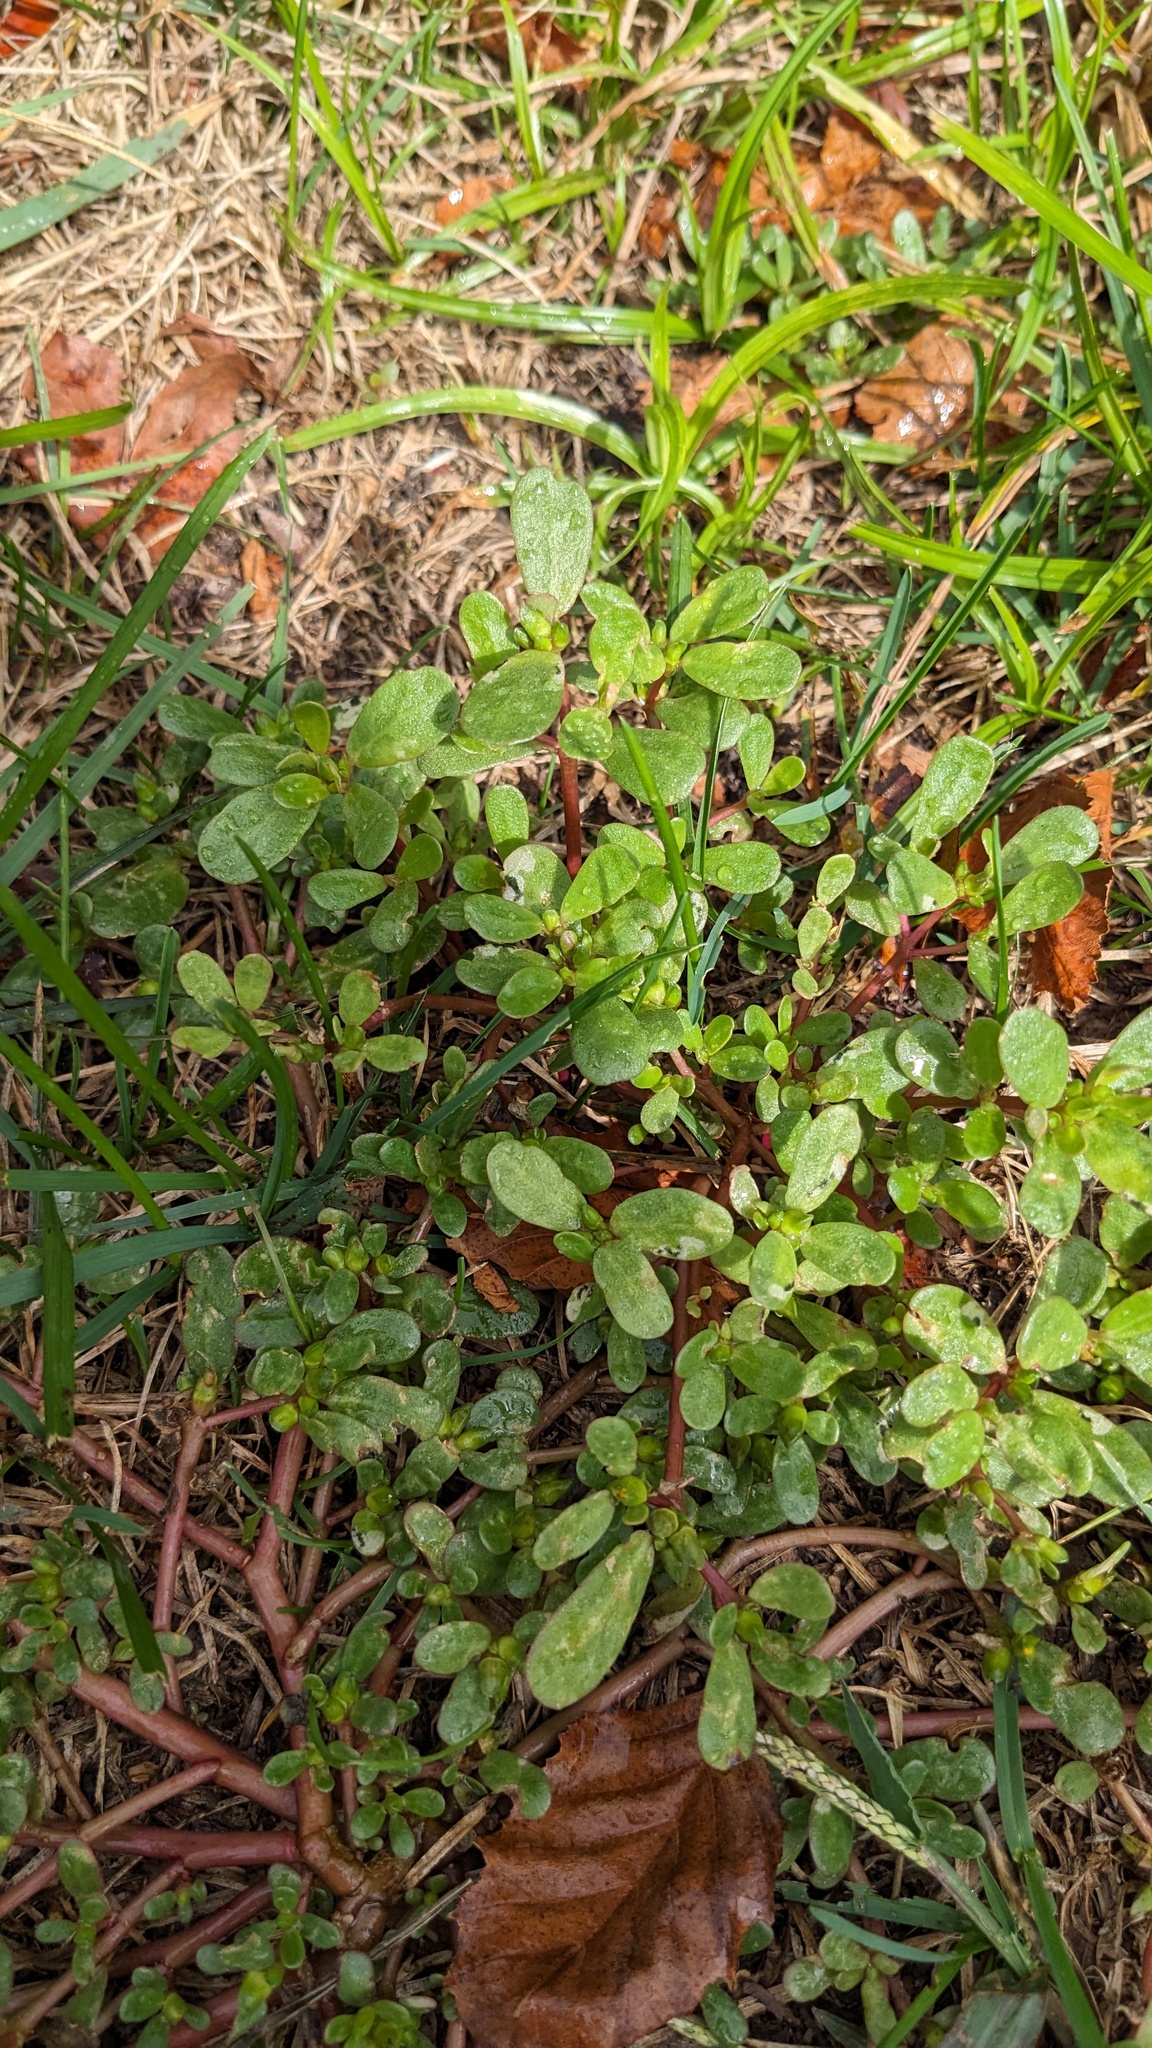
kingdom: Plantae
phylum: Tracheophyta
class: Magnoliopsida
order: Caryophyllales
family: Portulacaceae
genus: Portulaca
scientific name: Portulaca oleracea
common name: Common purslane
